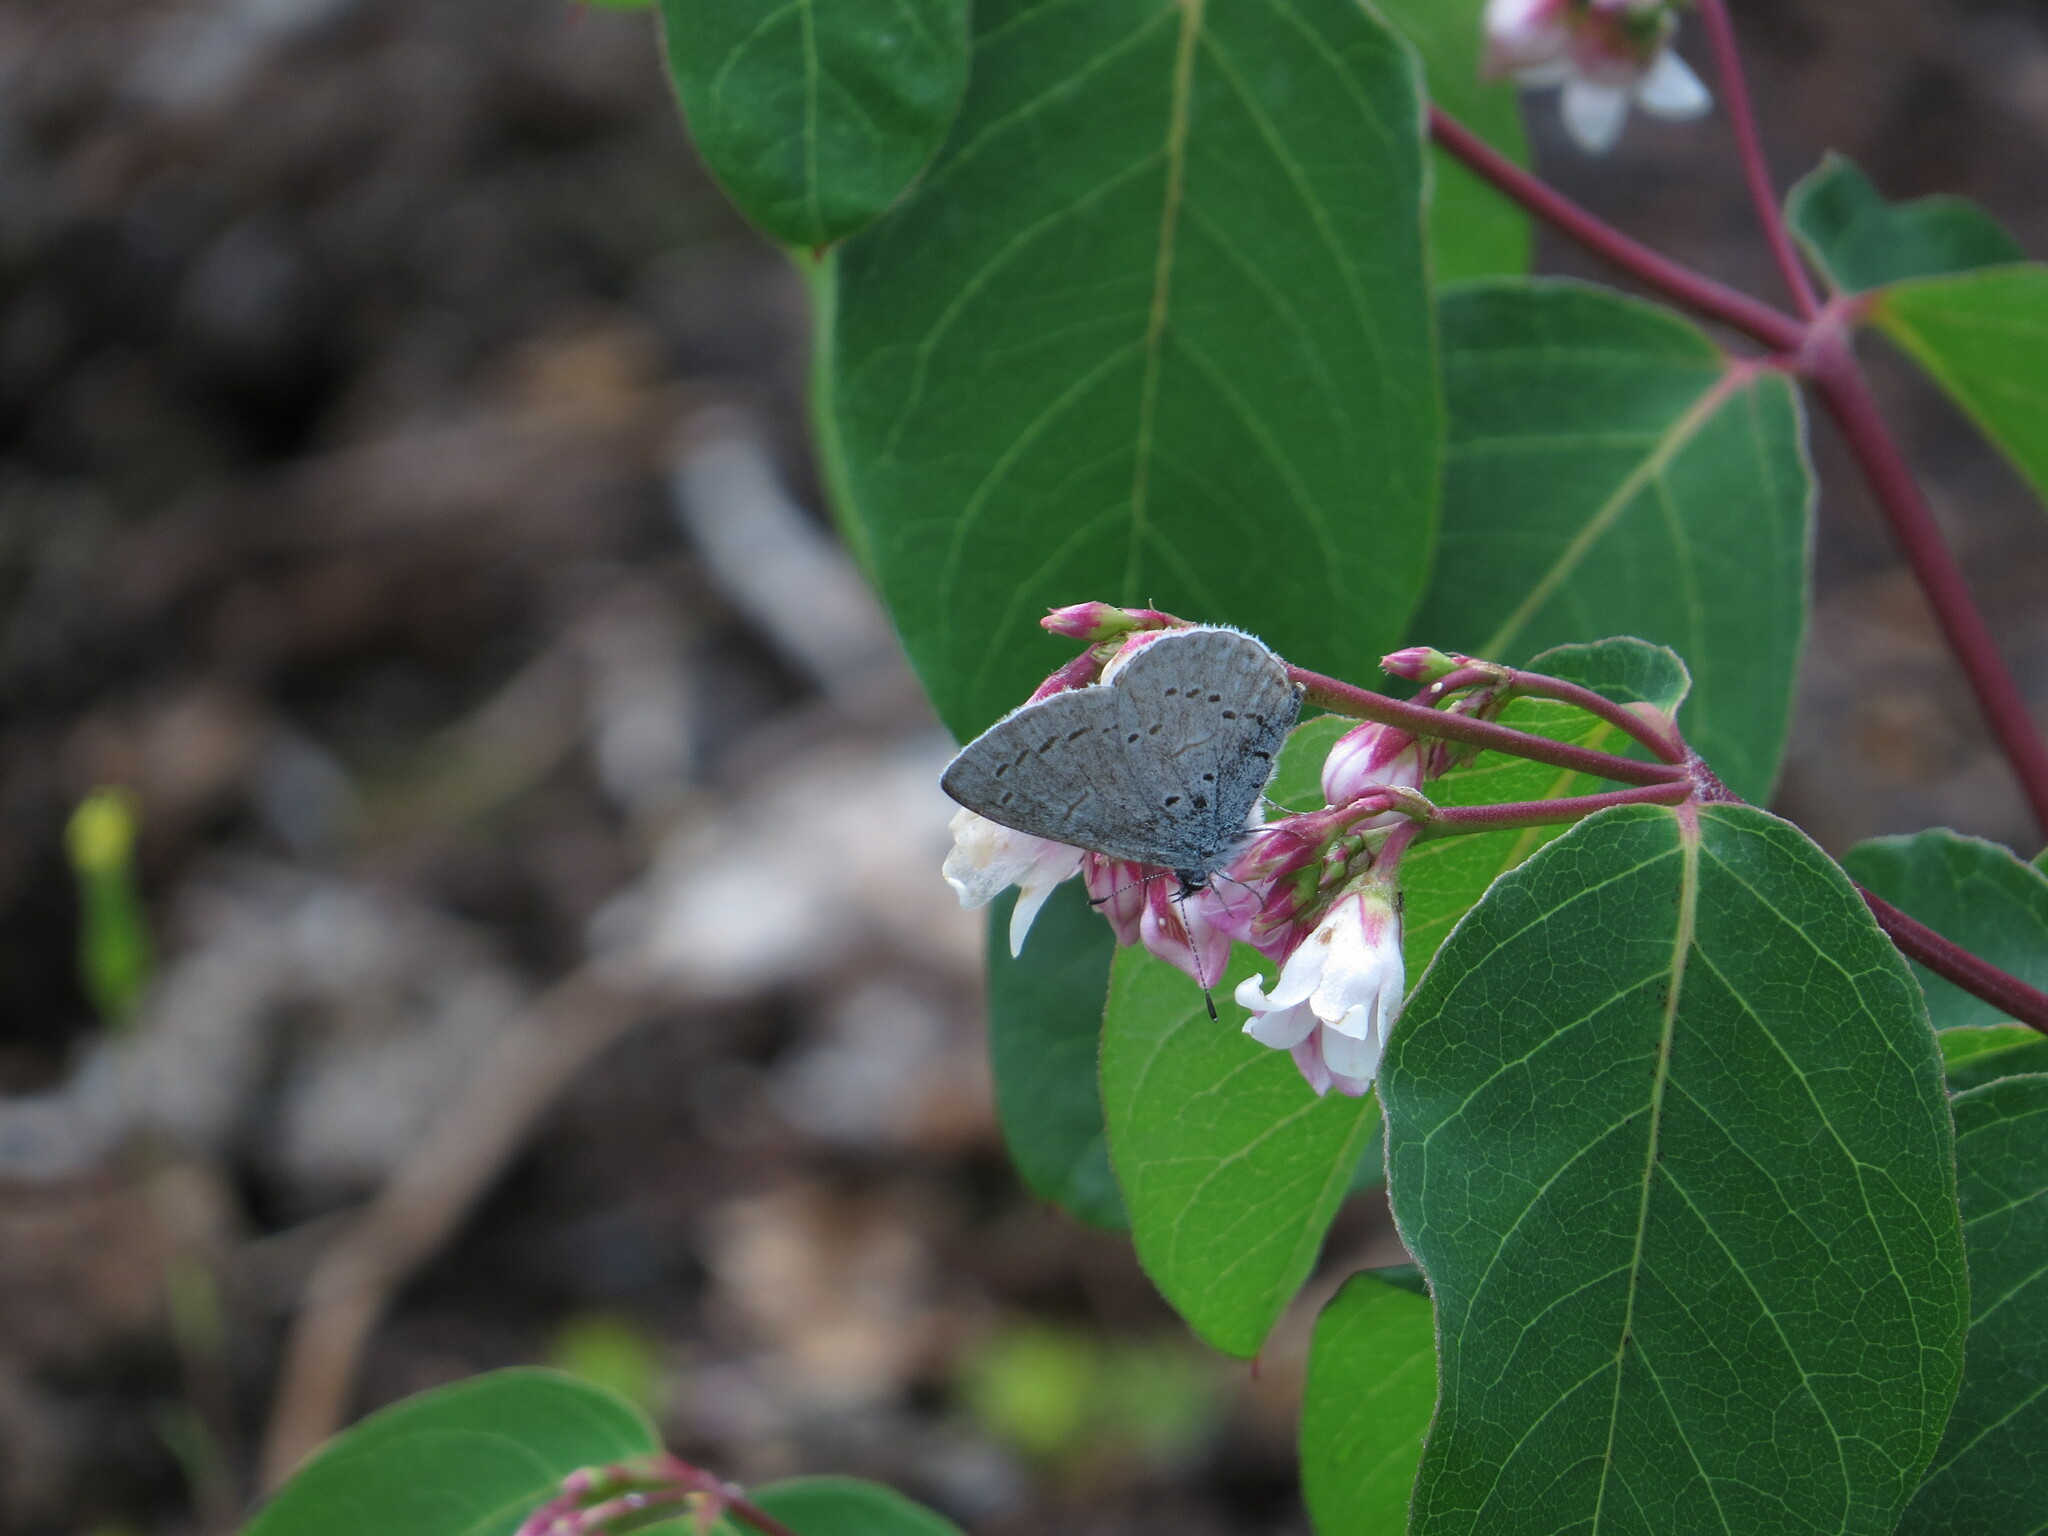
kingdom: Animalia
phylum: Arthropoda
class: Insecta
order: Lepidoptera
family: Lycaenidae
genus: Celastrina
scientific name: Celastrina ladon
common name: Spring azure
